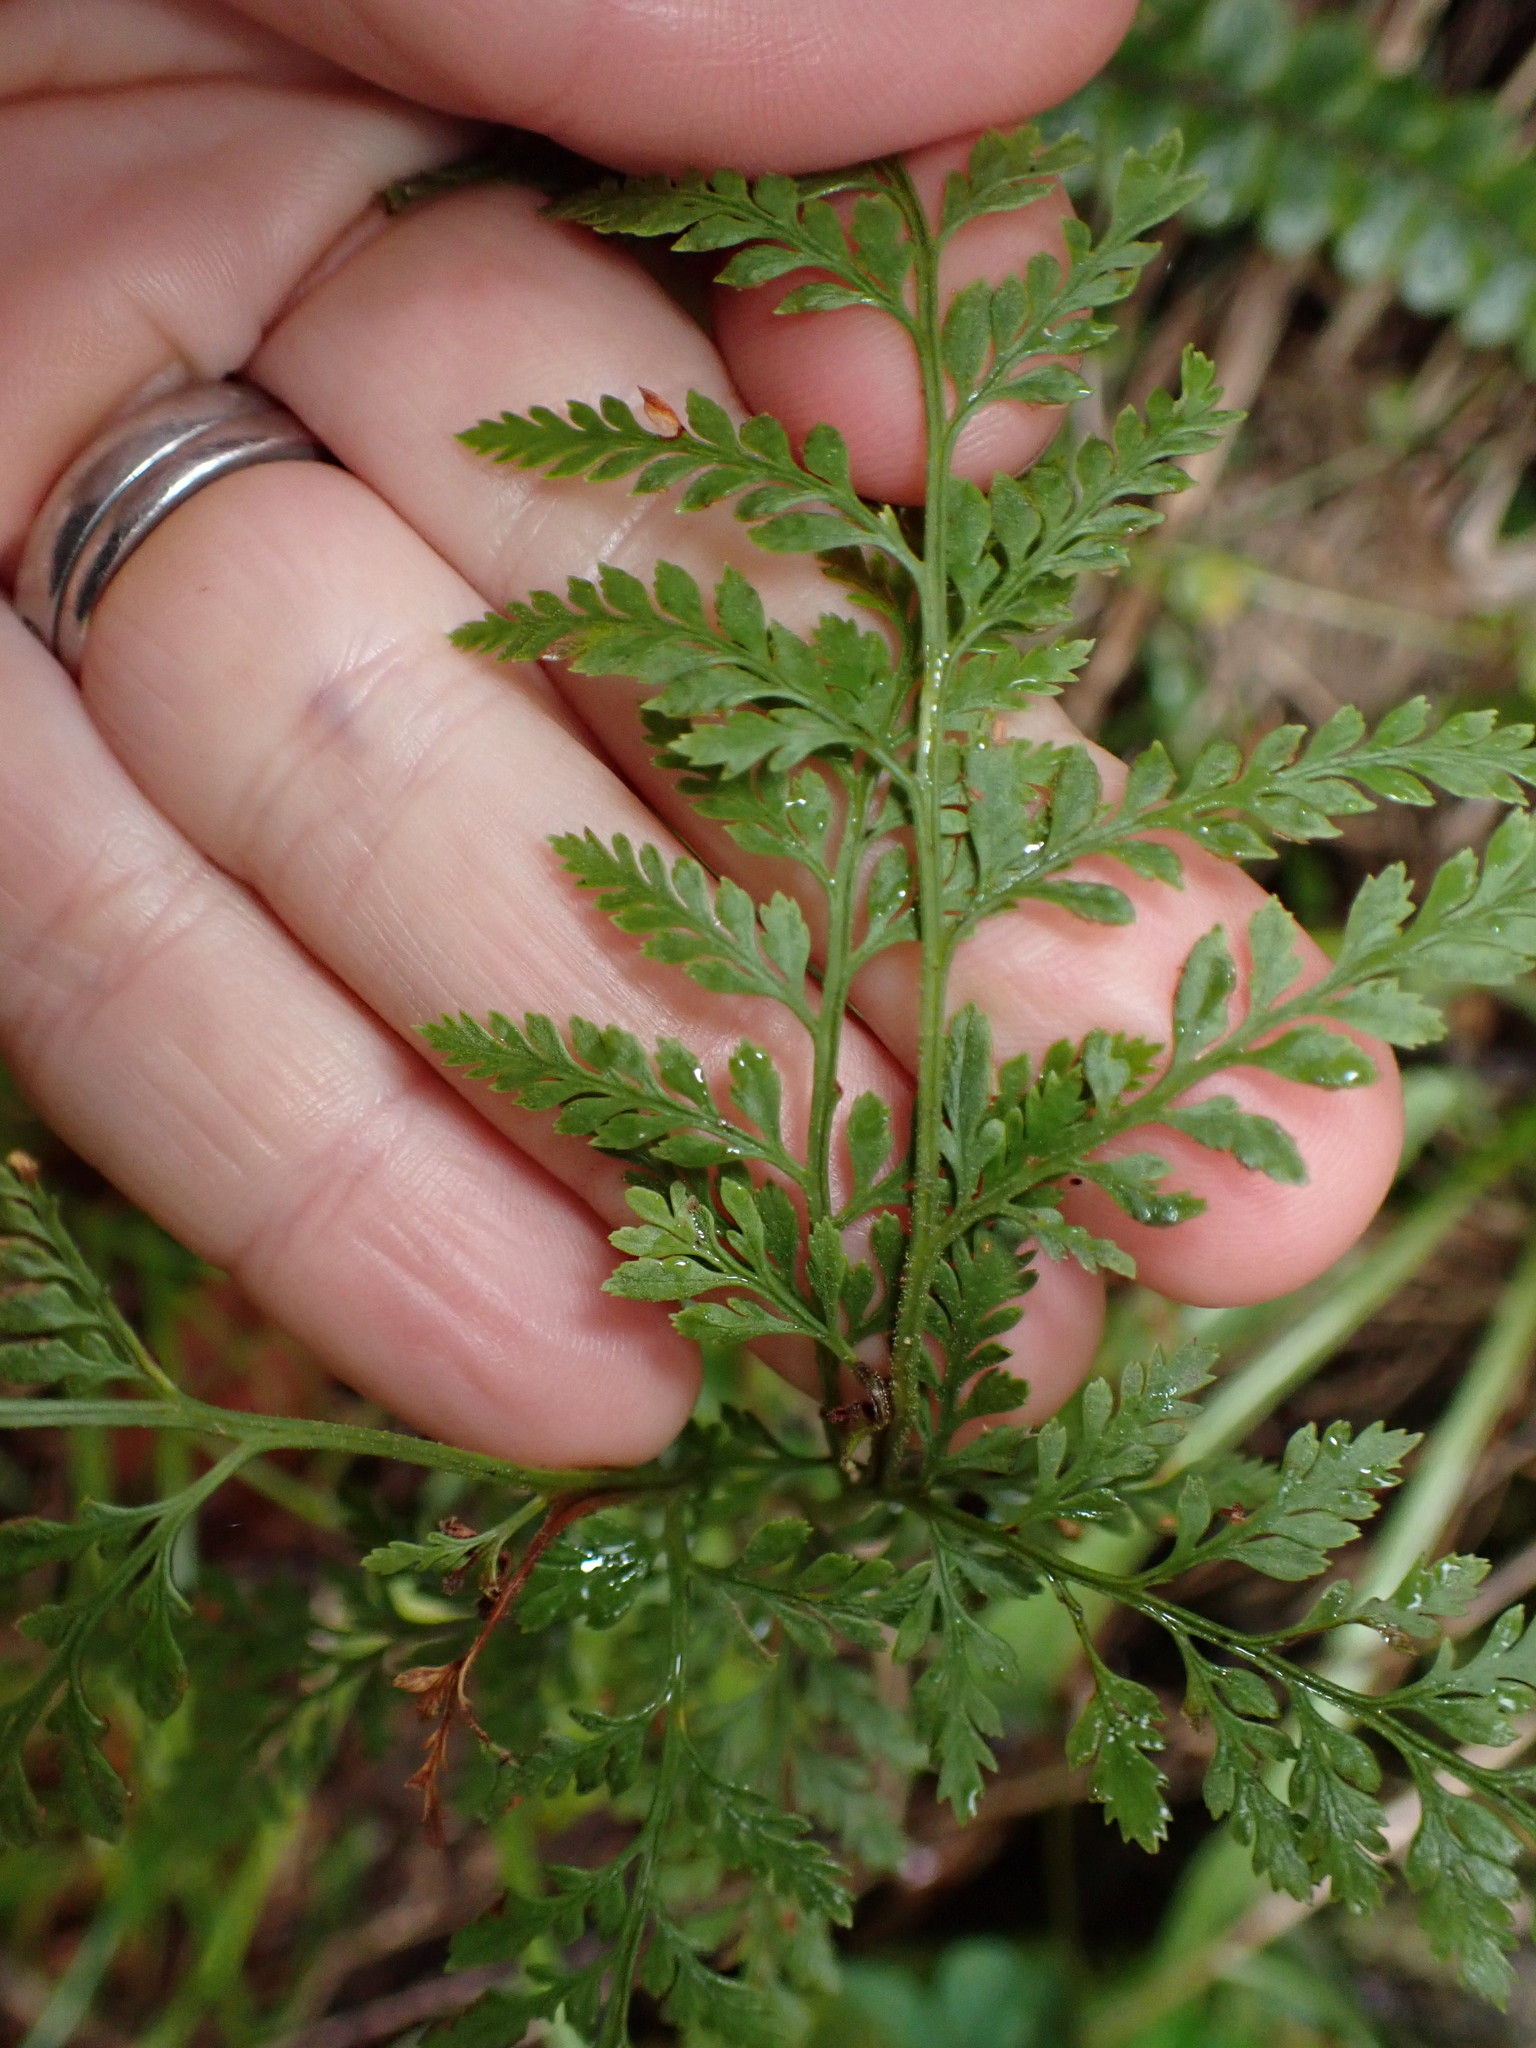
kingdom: Plantae
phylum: Tracheophyta
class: Polypodiopsida
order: Polypodiales
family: Dennstaedtiaceae
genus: Paesia
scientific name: Paesia scaberula
